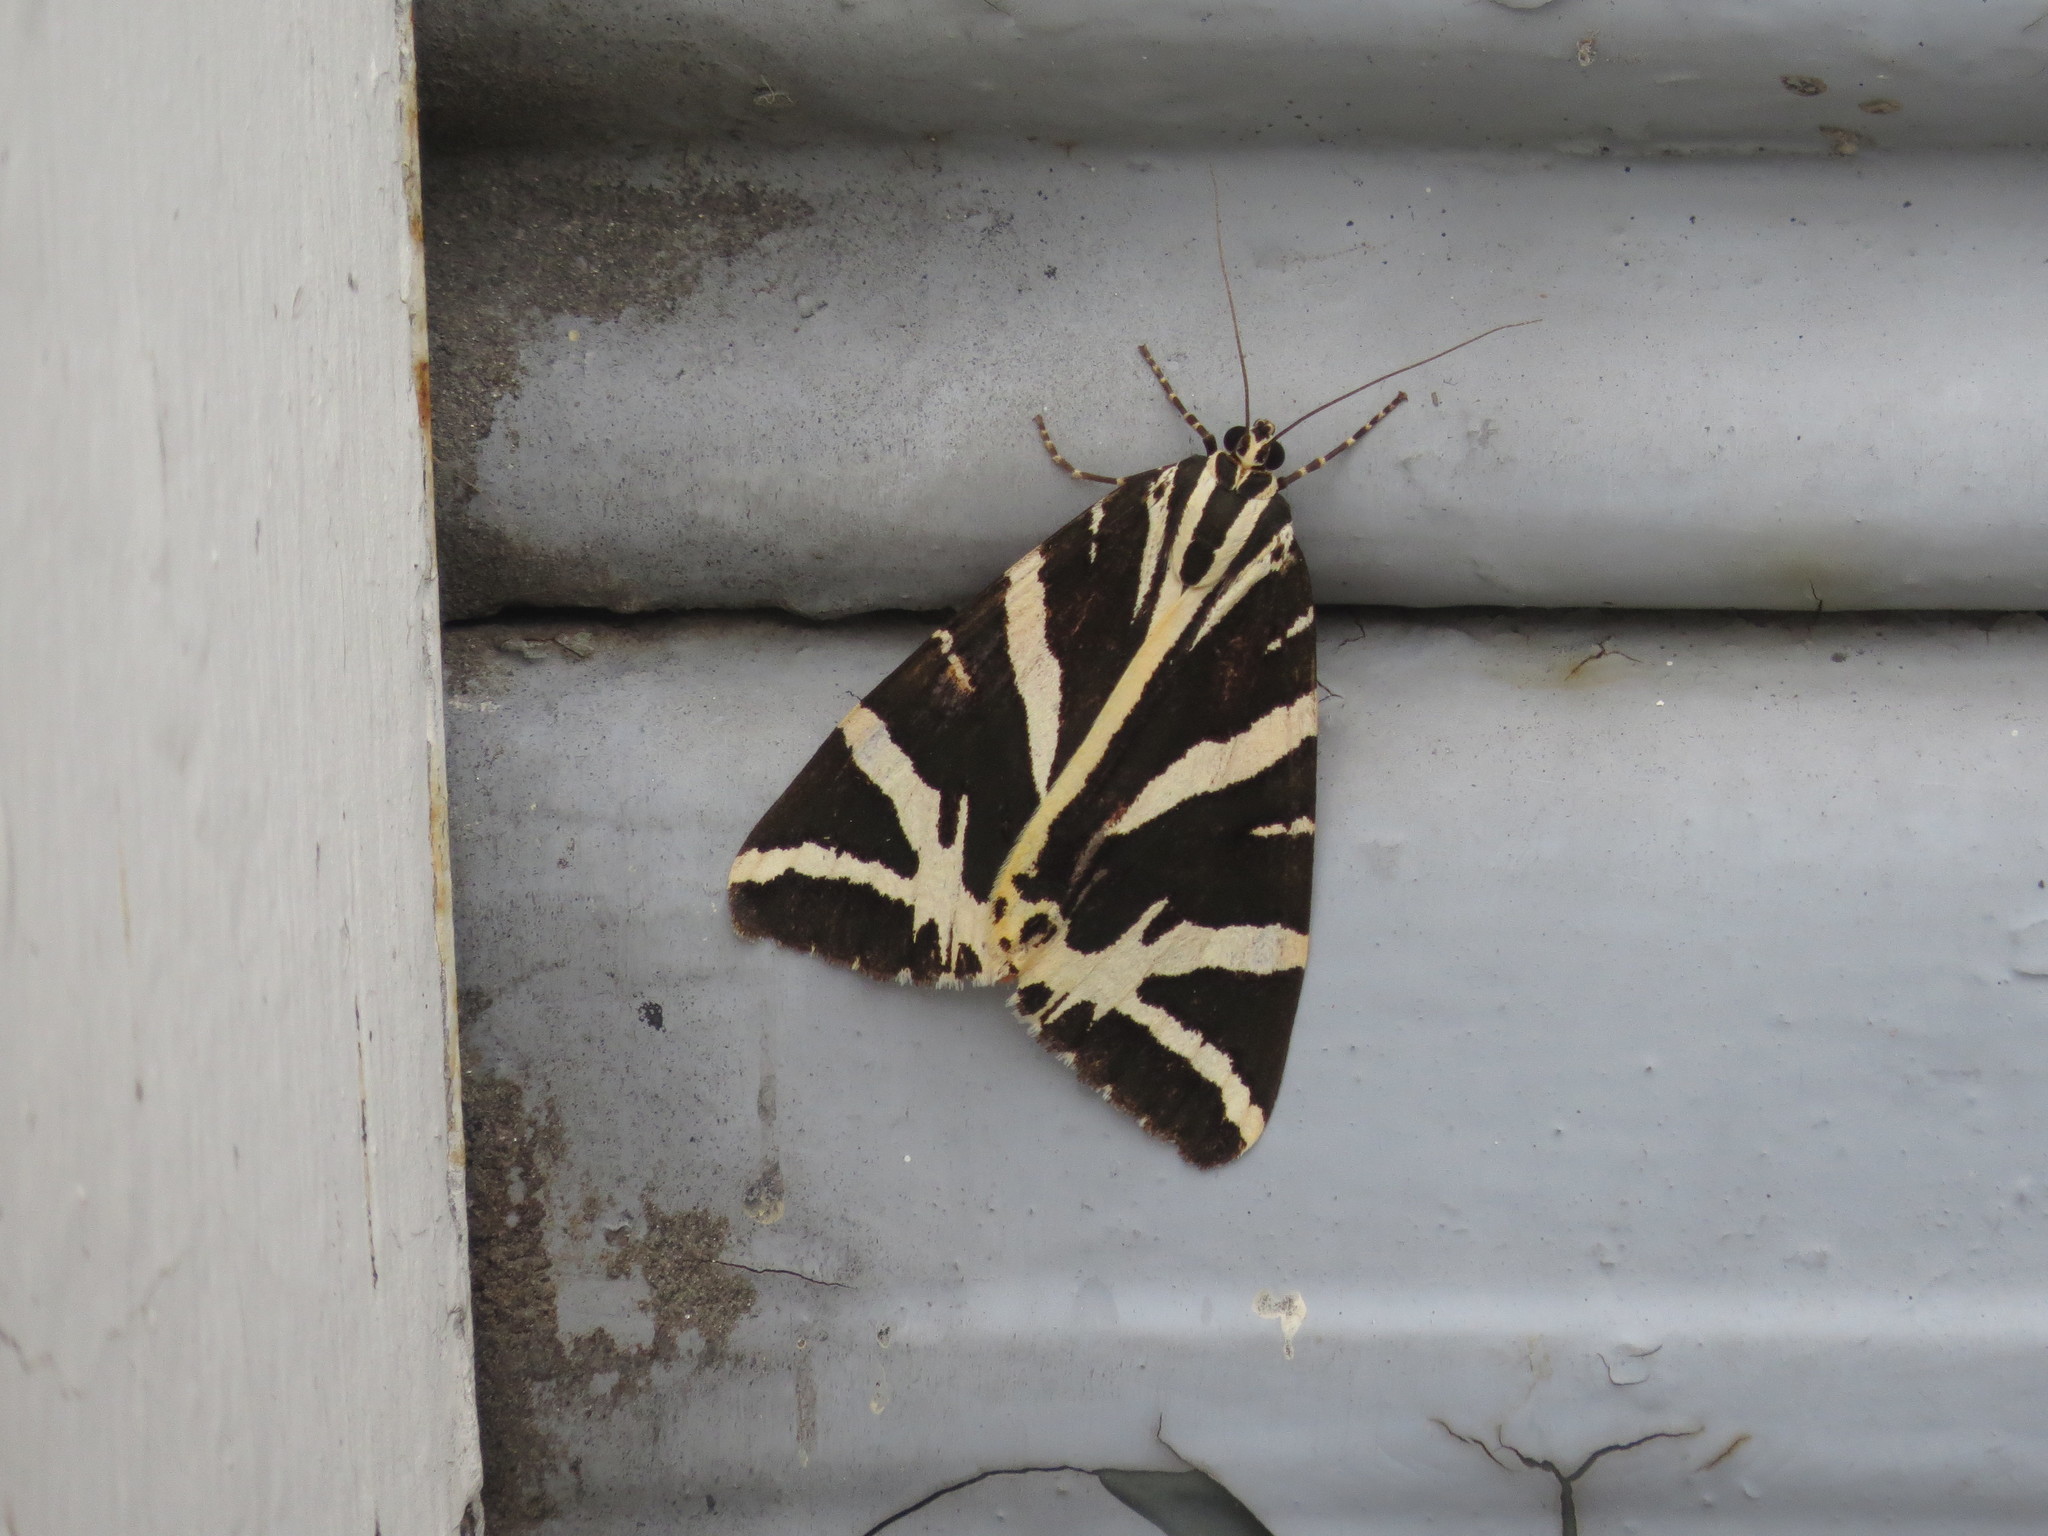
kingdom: Animalia
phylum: Arthropoda
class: Insecta
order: Lepidoptera
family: Erebidae
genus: Euplagia
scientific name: Euplagia quadripunctaria
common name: Jersey tiger
